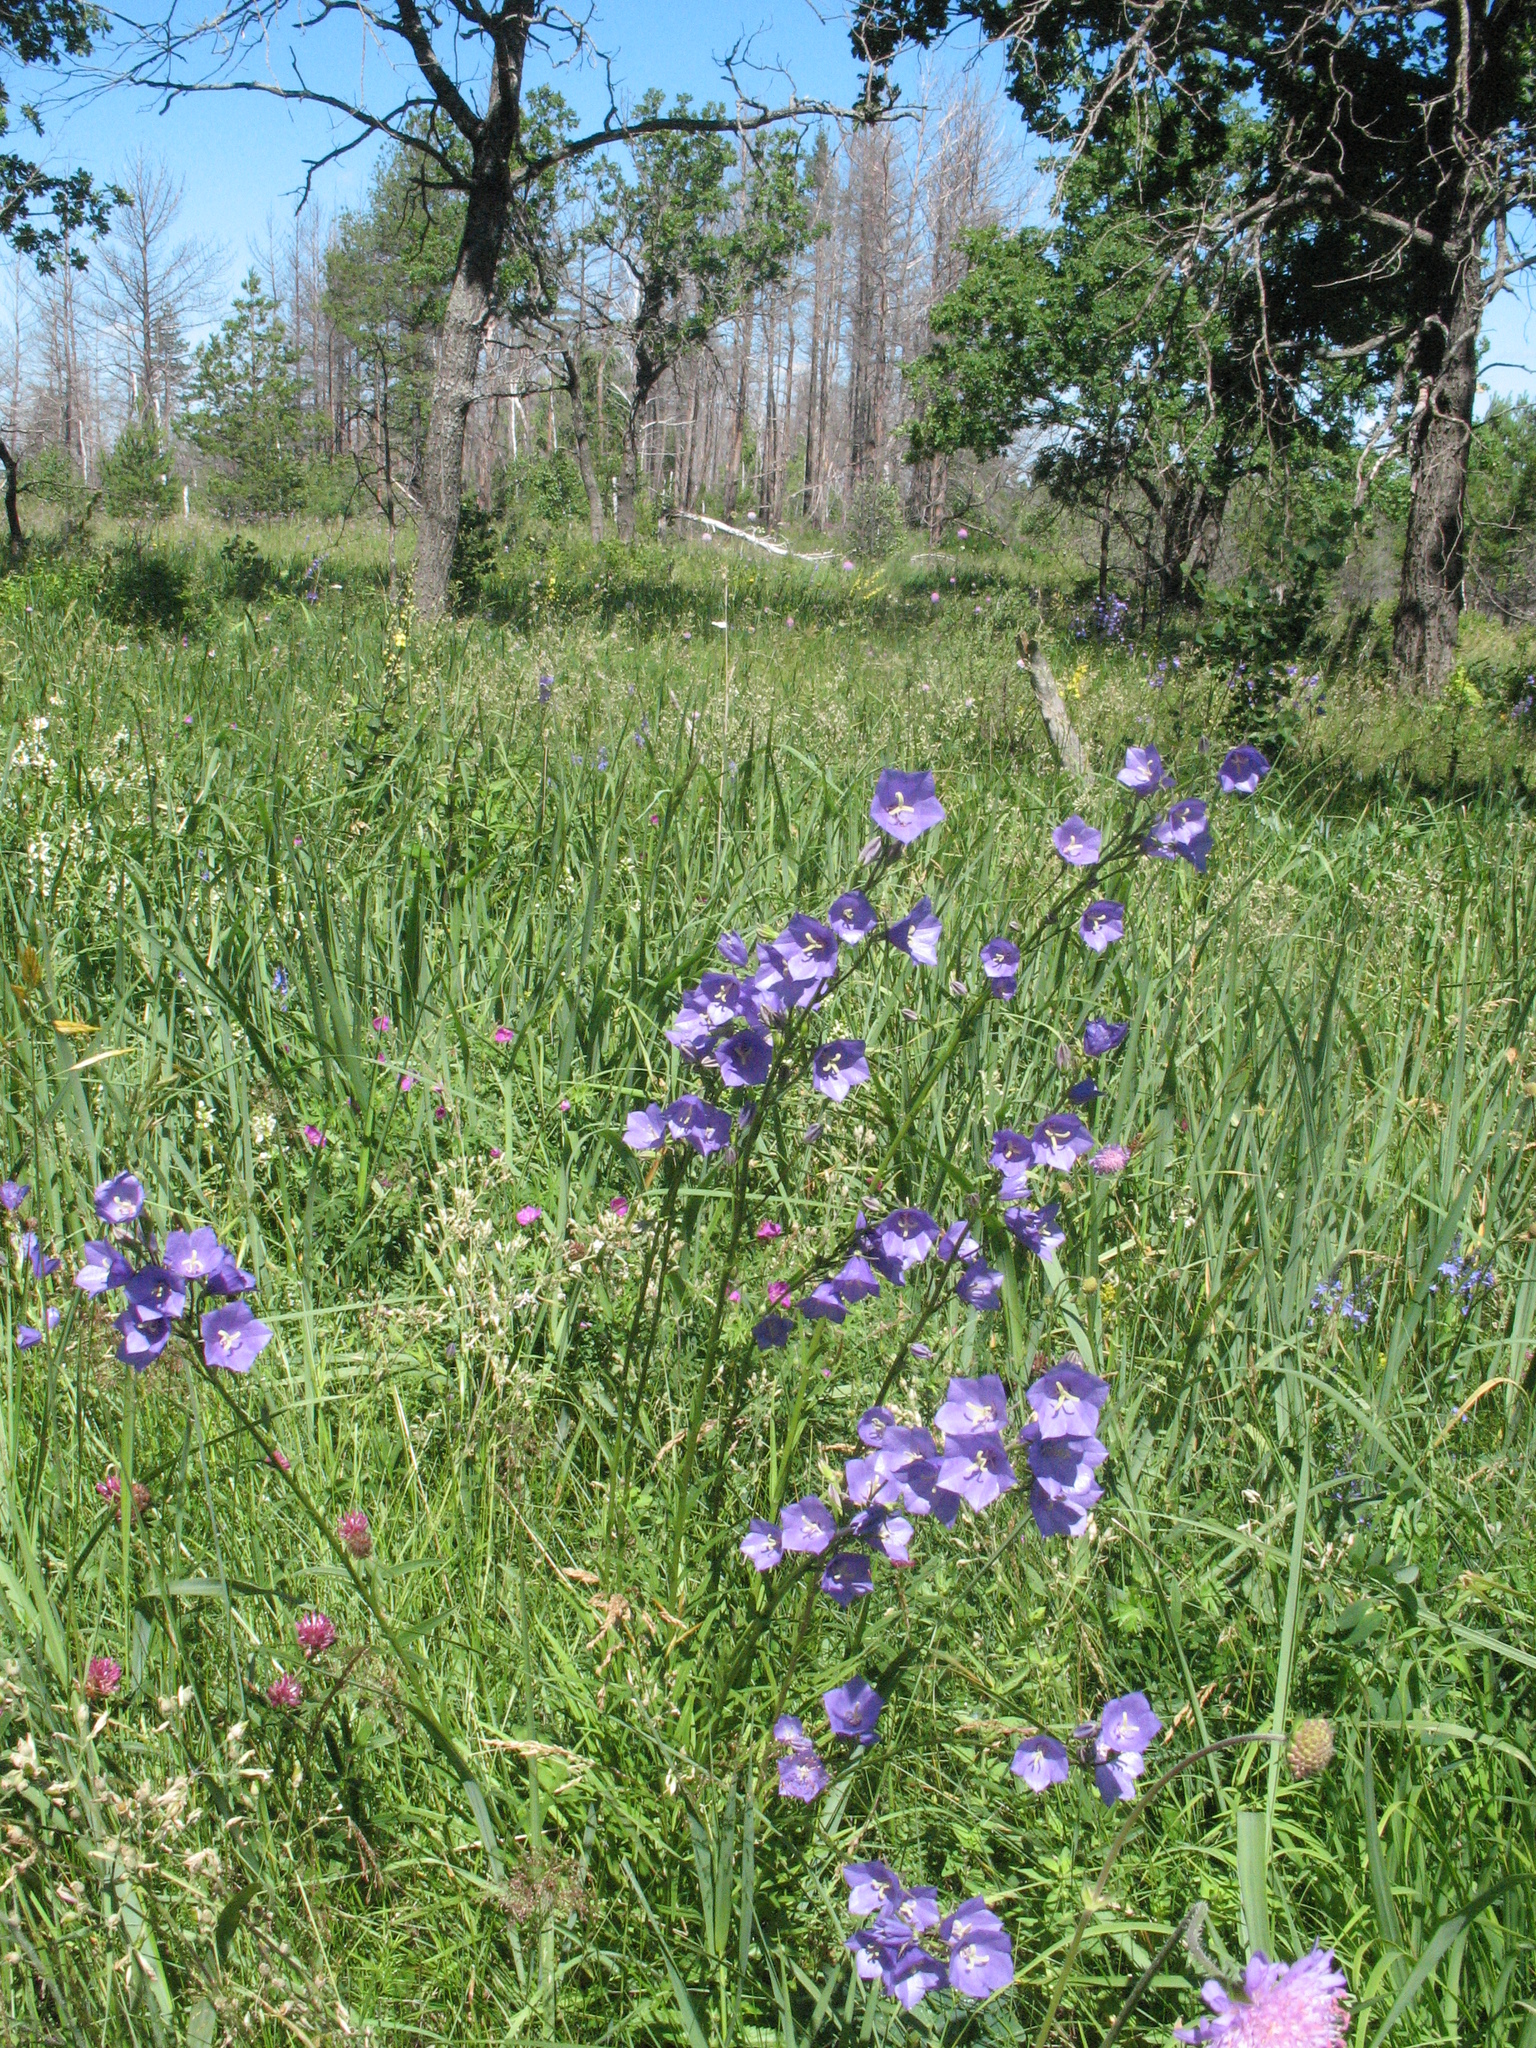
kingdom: Plantae
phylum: Tracheophyta
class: Magnoliopsida
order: Asterales
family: Campanulaceae
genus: Campanula
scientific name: Campanula persicifolia
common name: Peach-leaved bellflower
